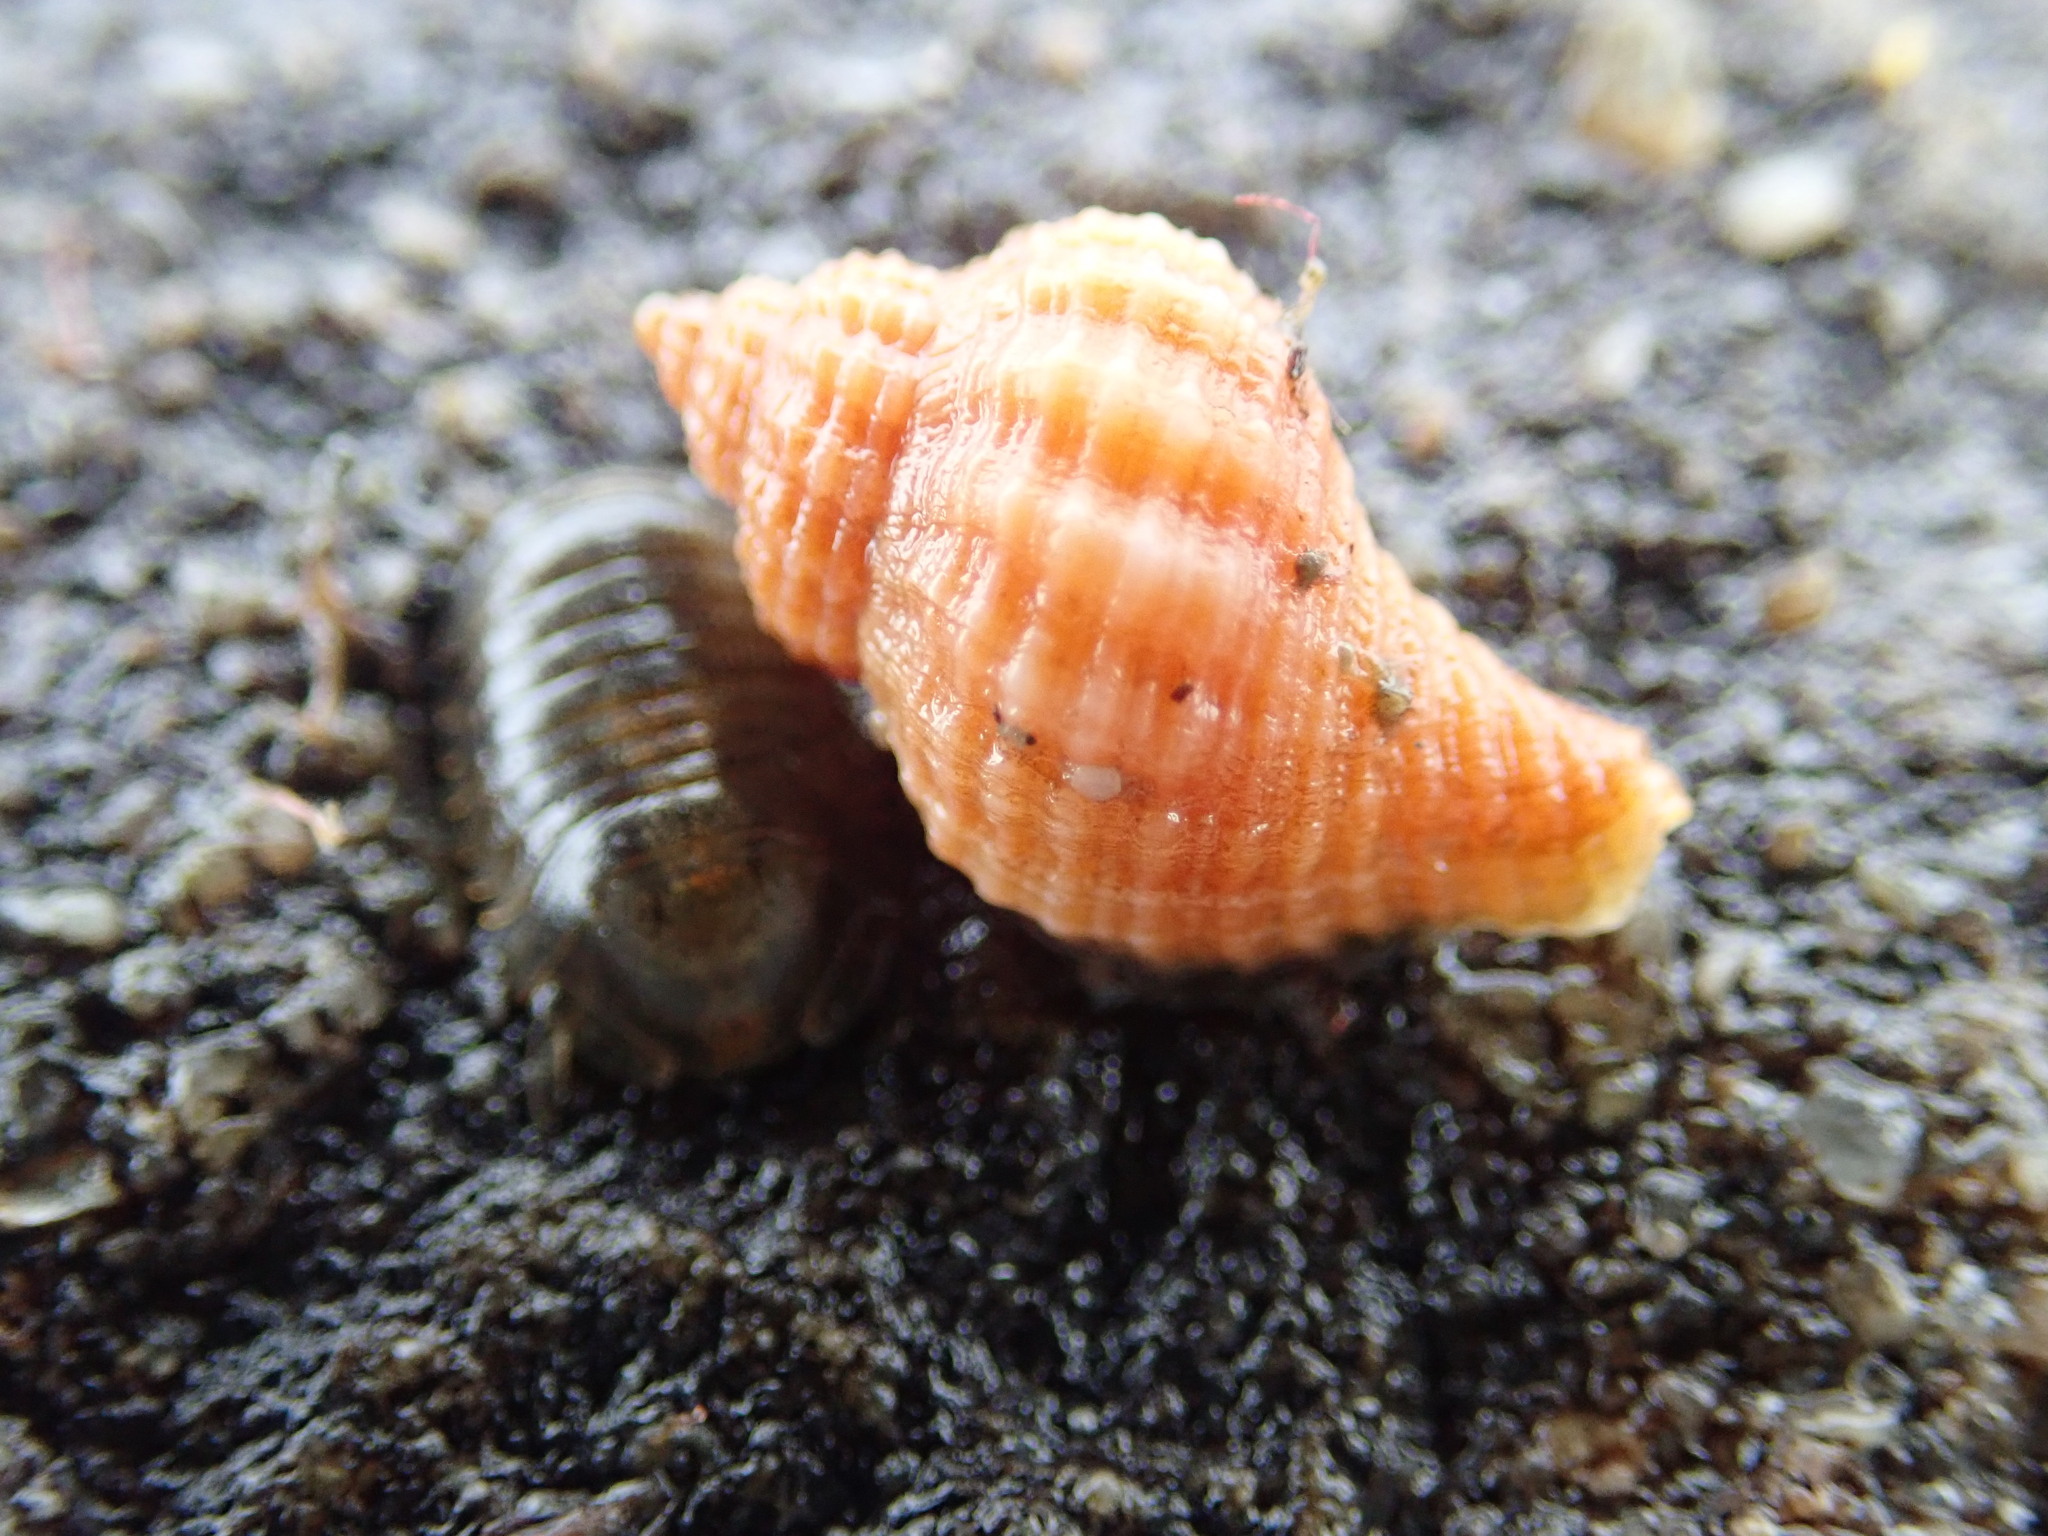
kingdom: Animalia
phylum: Mollusca
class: Gastropoda
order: Neogastropoda
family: Muricidae
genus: Urosalpinx
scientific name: Urosalpinx cinerea
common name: American sting winkle
